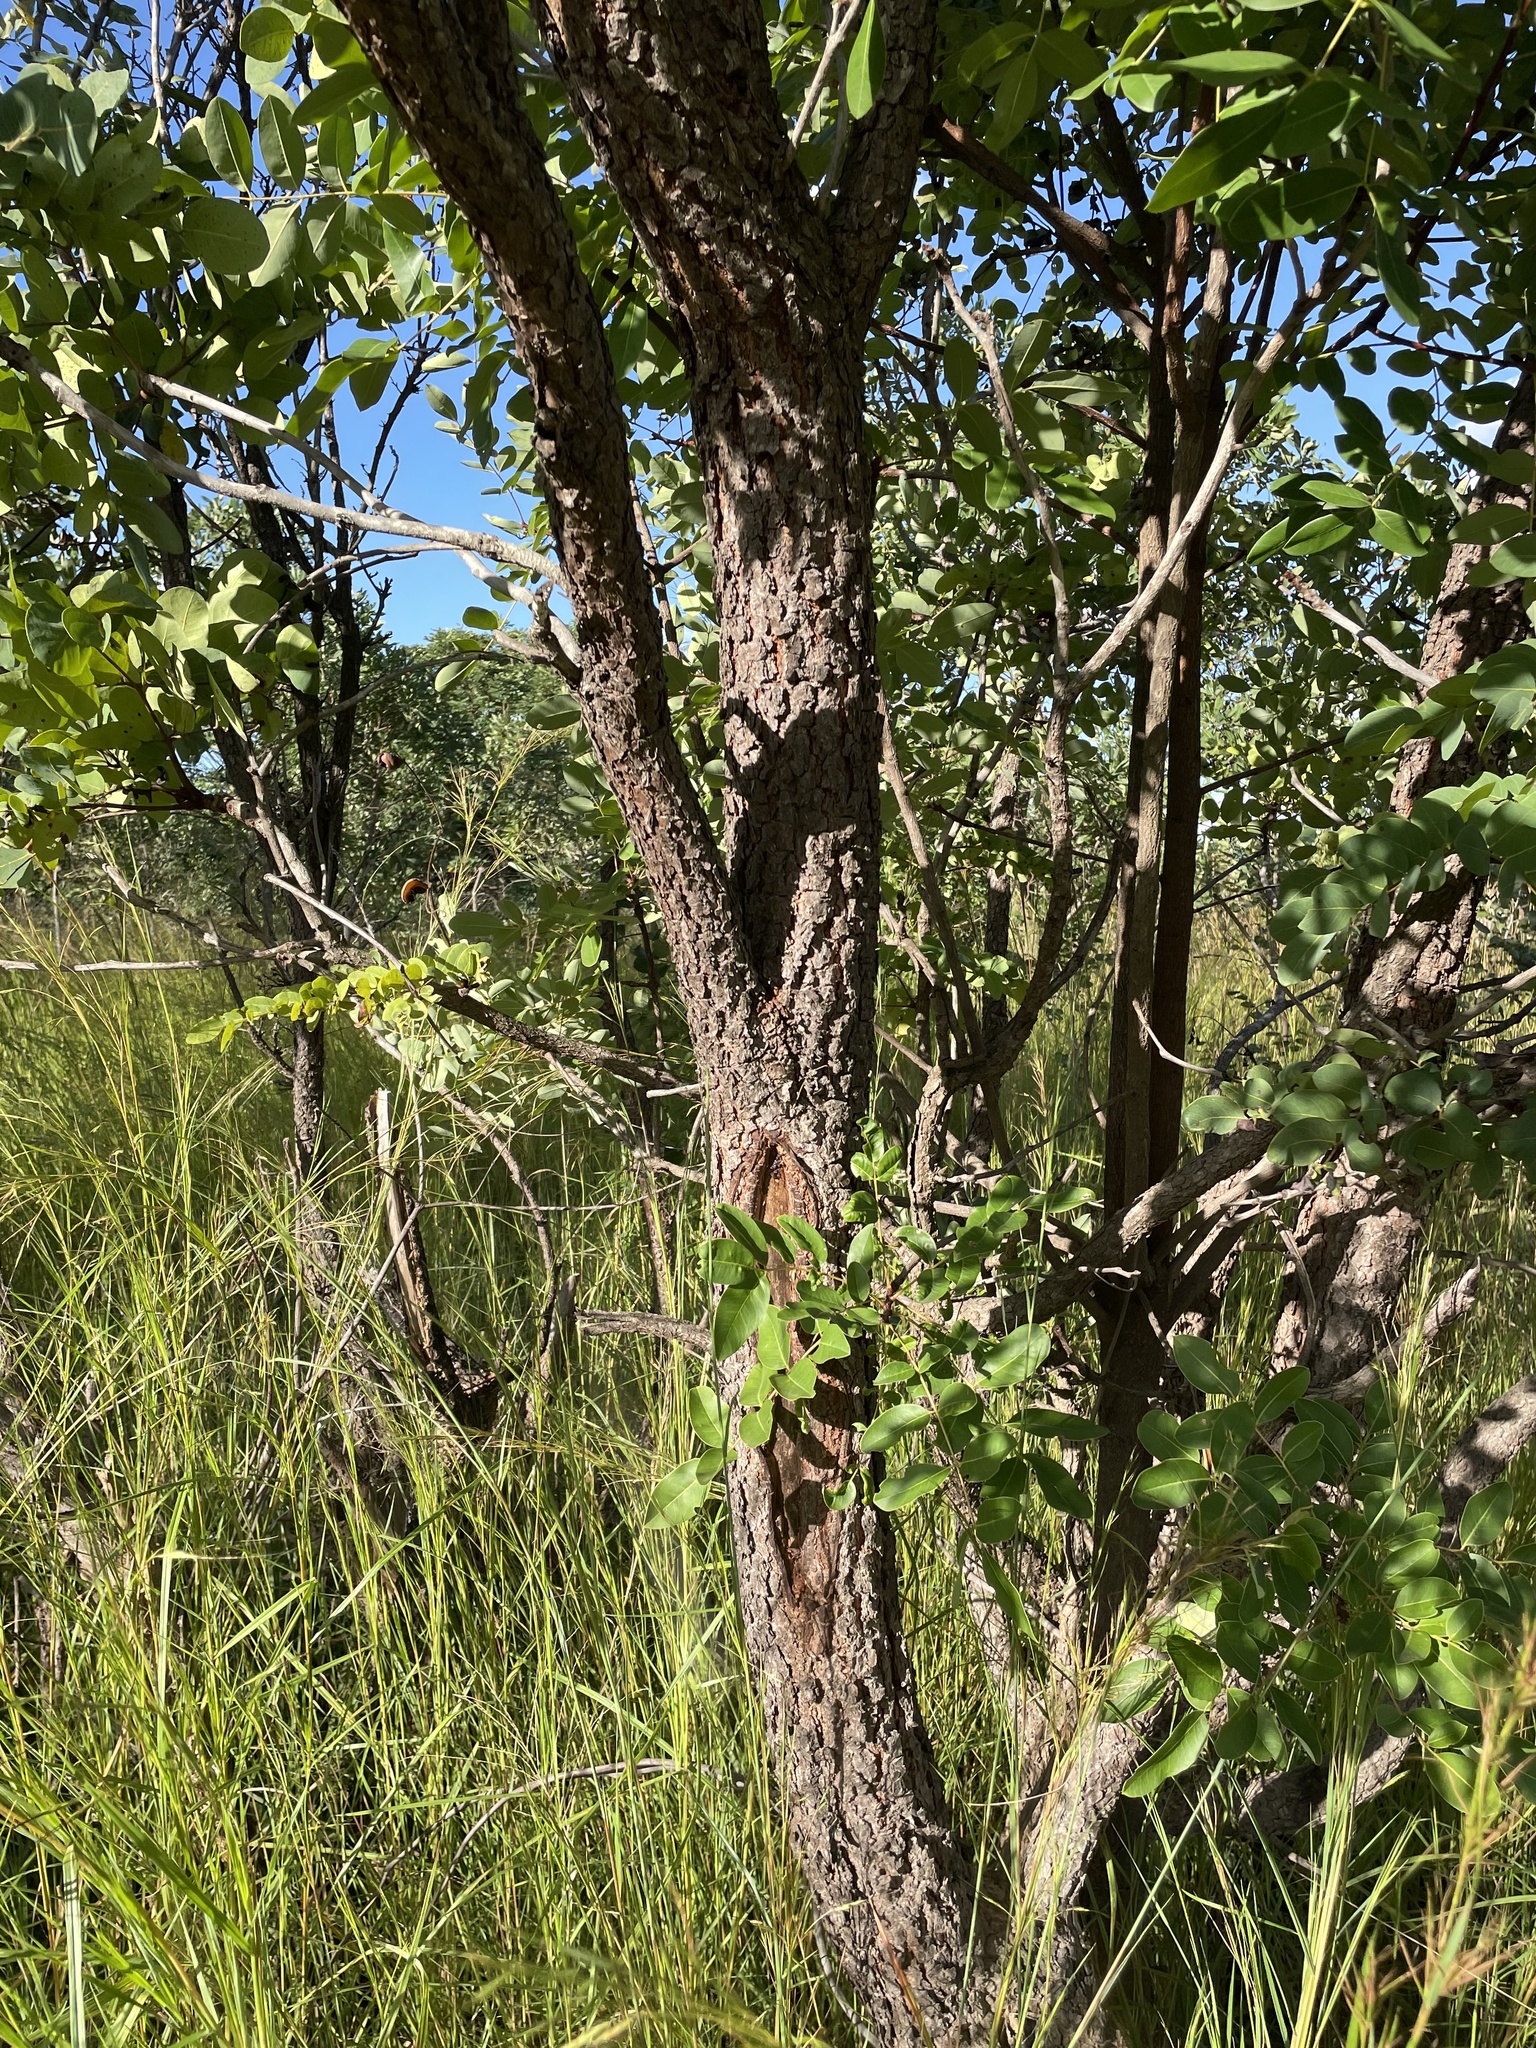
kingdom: Plantae
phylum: Tracheophyta
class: Magnoliopsida
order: Fabales
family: Fabaceae
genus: Burkea
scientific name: Burkea africana
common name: Mkalati tree
